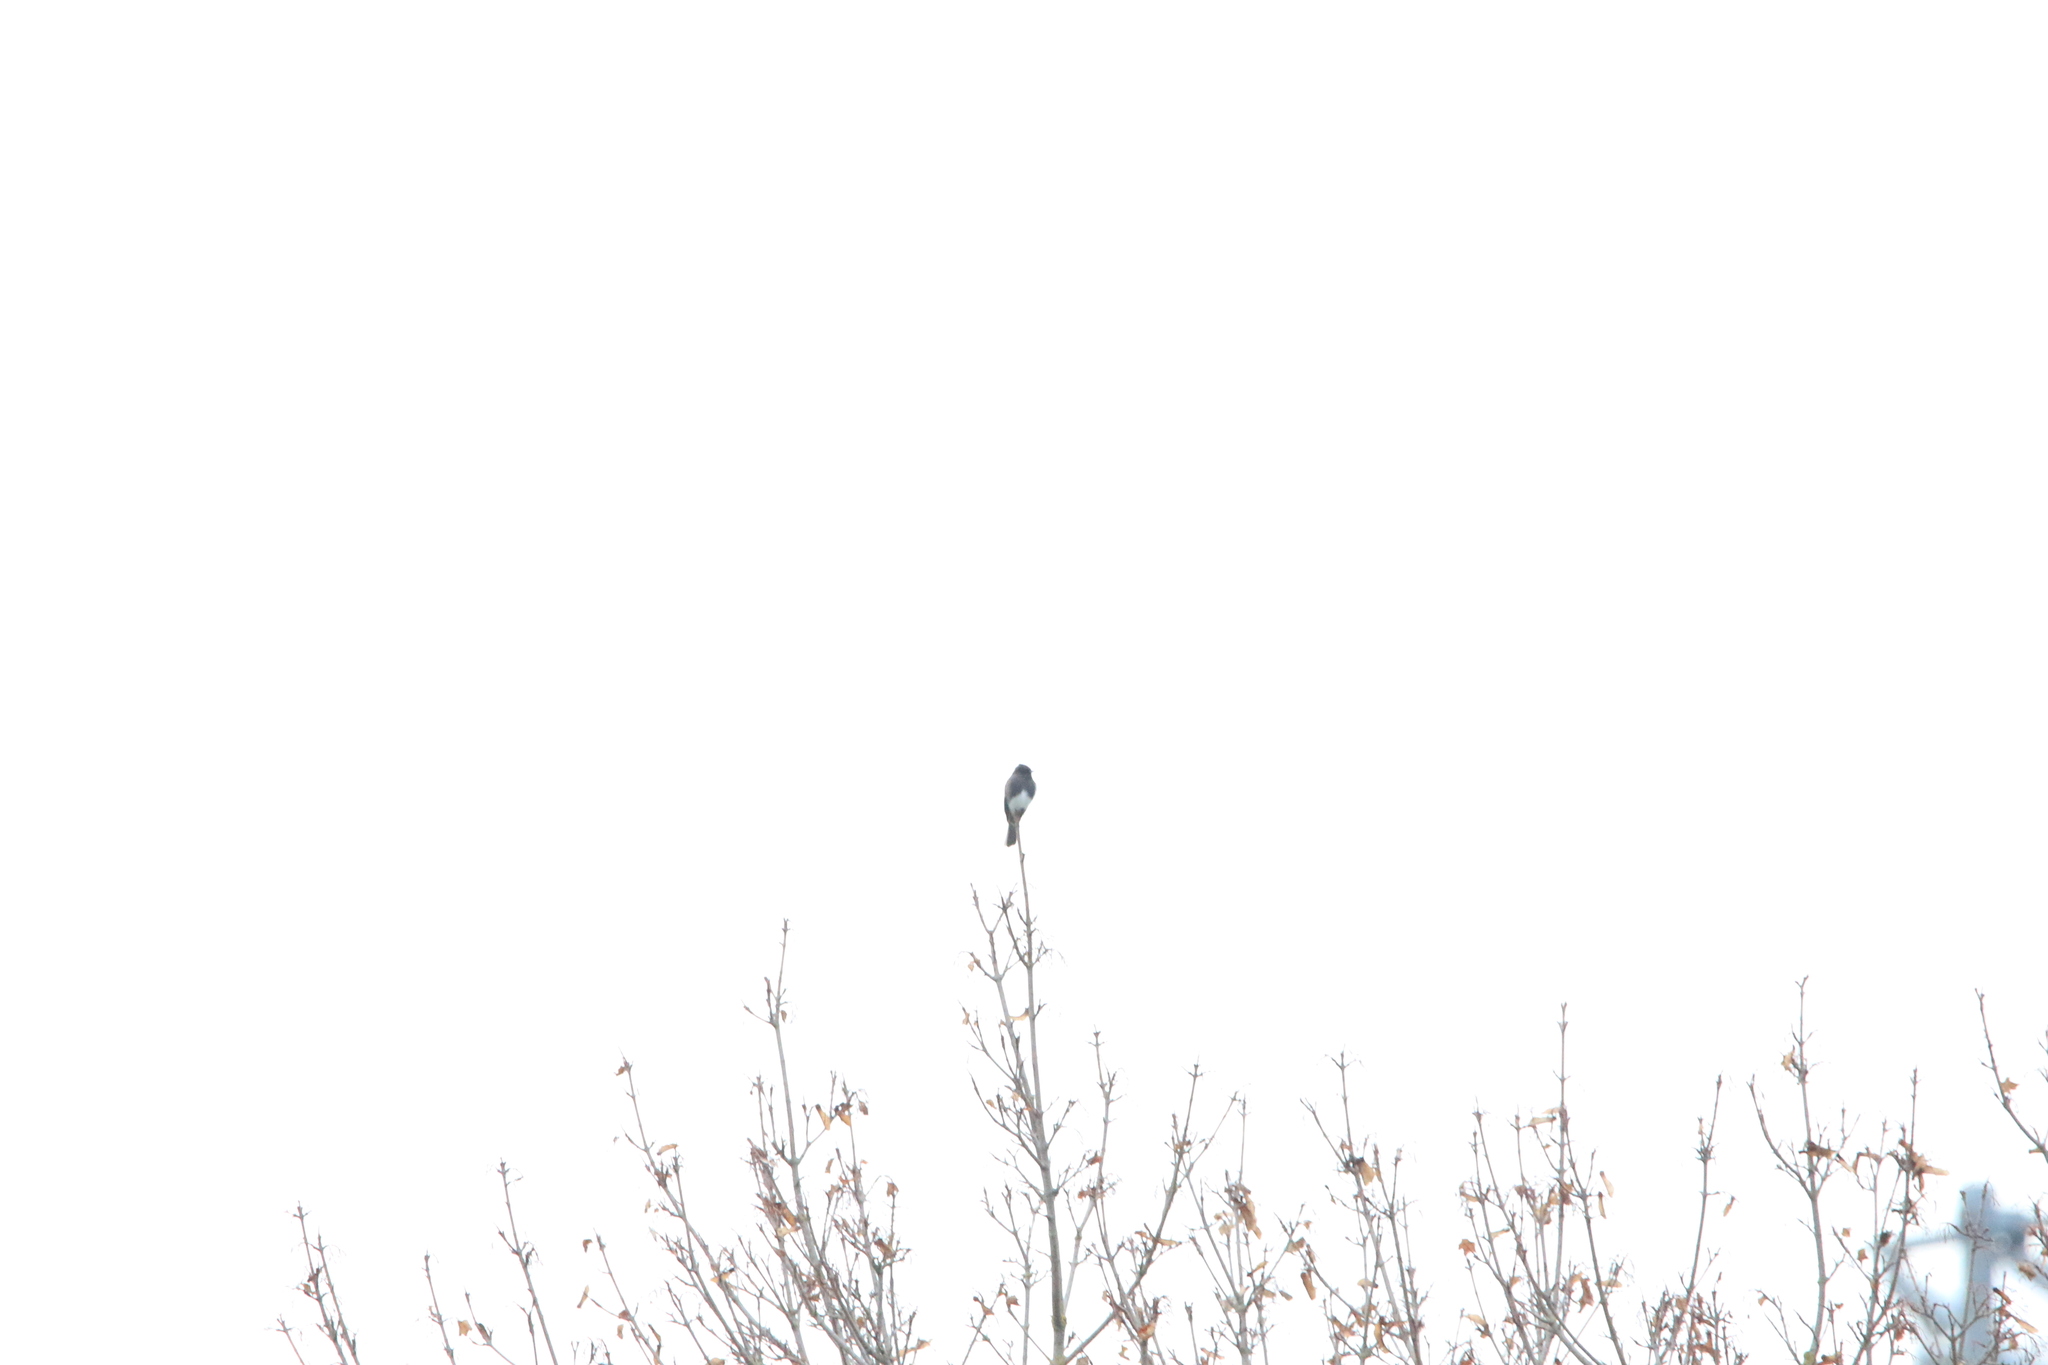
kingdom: Animalia
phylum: Chordata
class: Aves
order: Passeriformes
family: Tyrannidae
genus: Sayornis
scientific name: Sayornis nigricans
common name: Black phoebe
